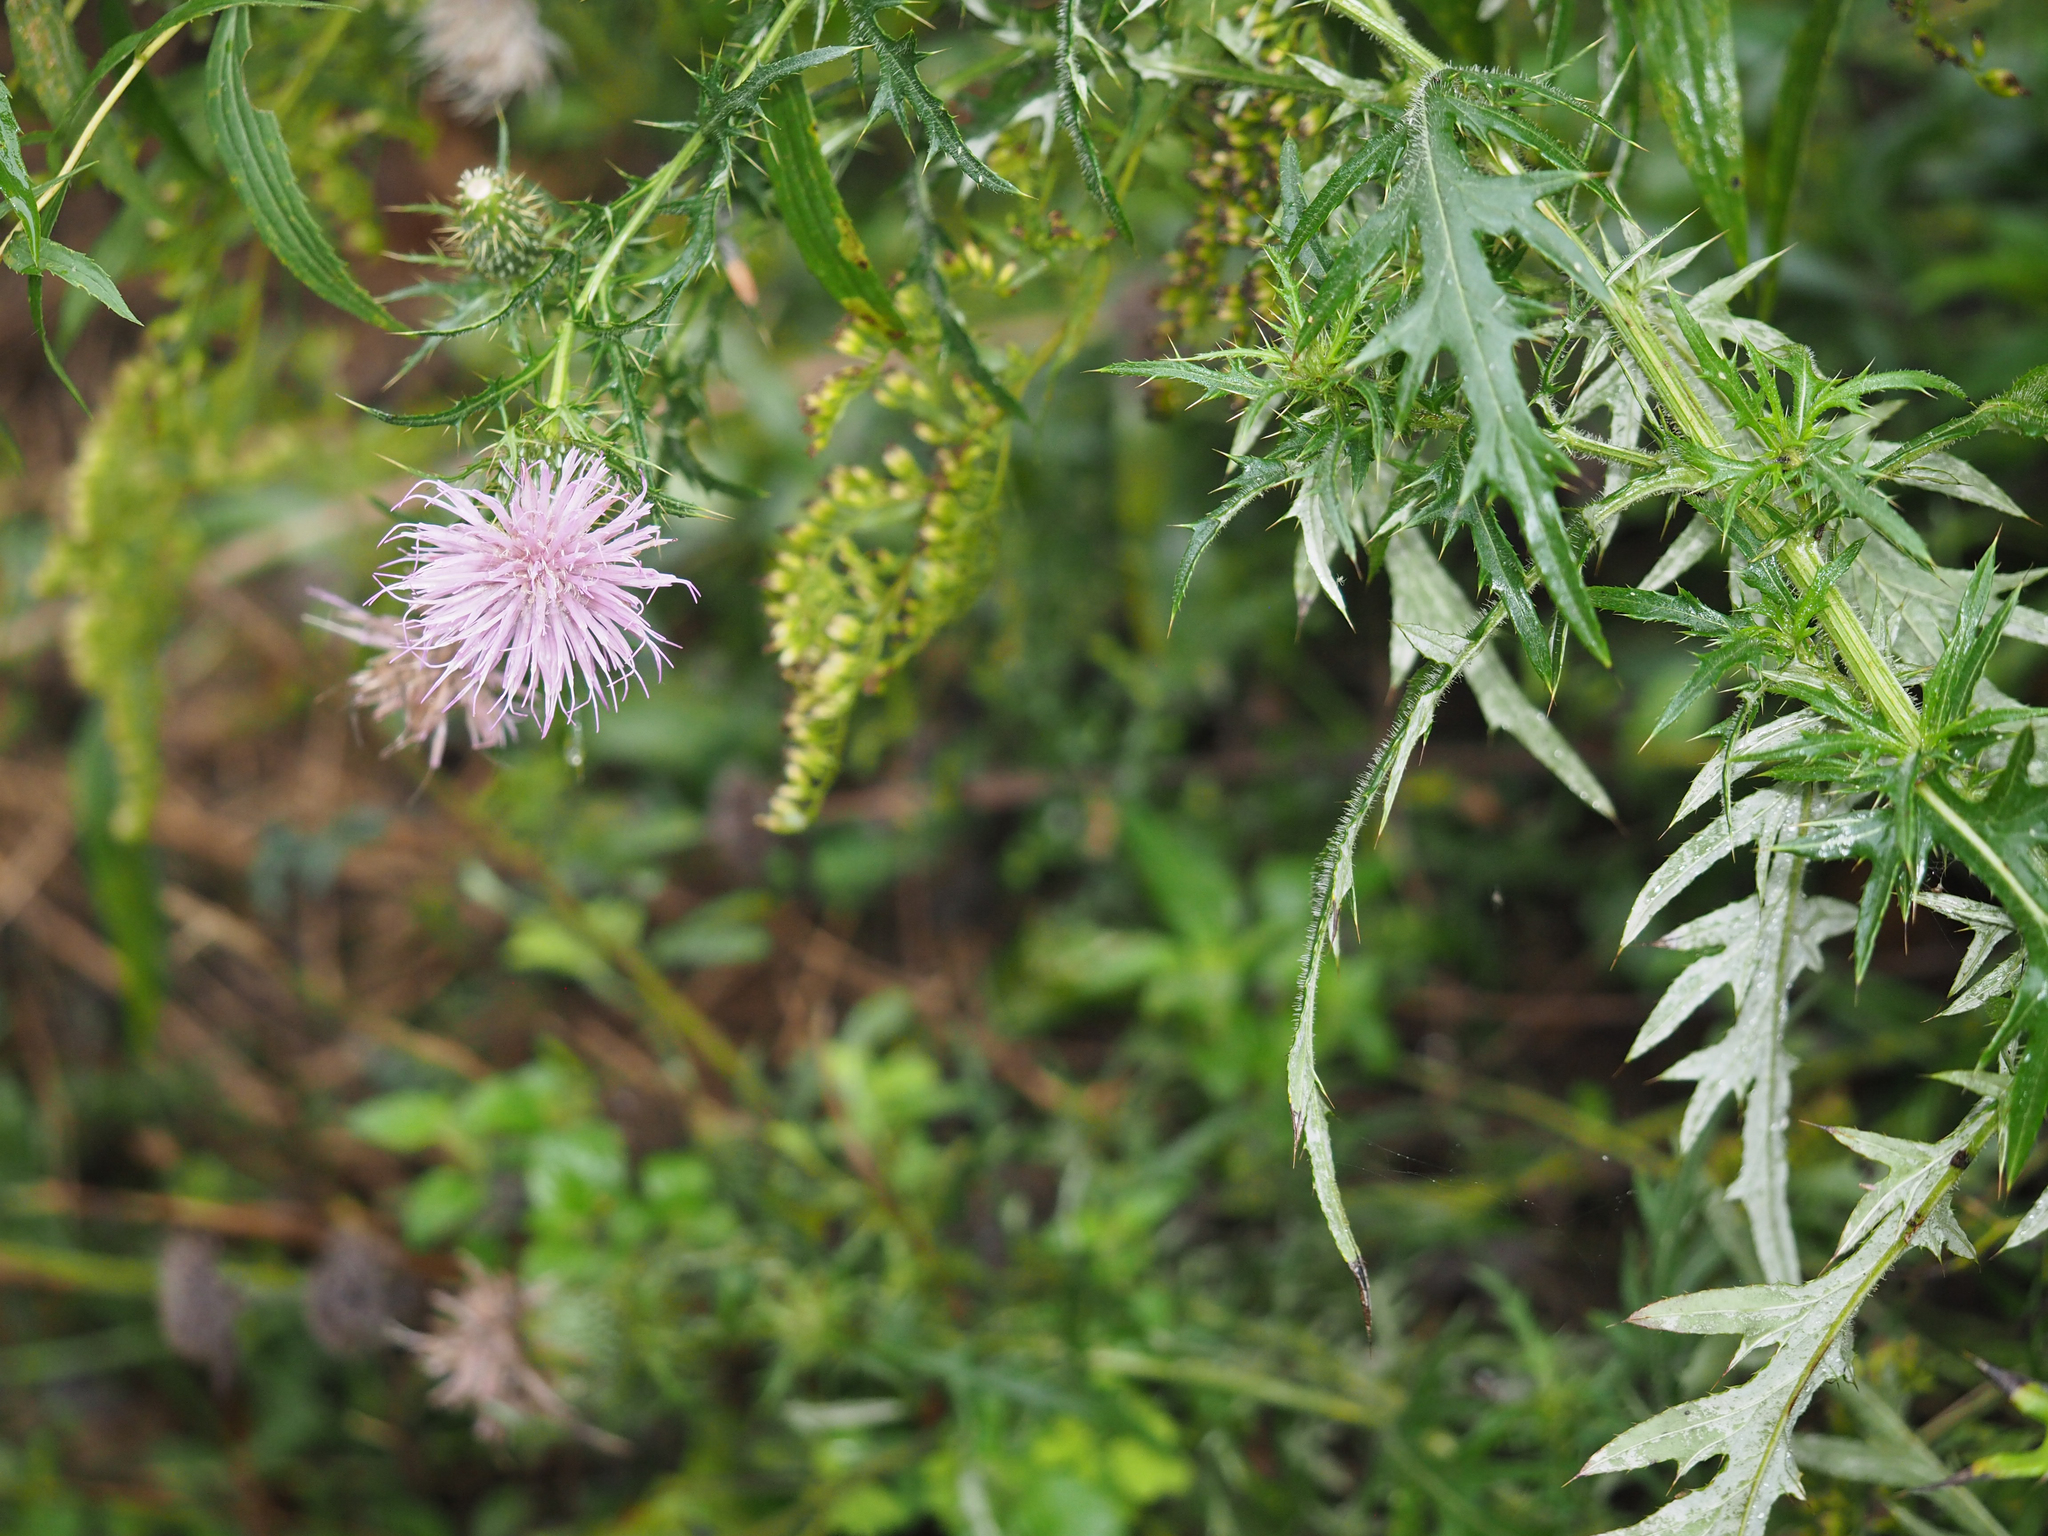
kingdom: Plantae
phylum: Tracheophyta
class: Magnoliopsida
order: Asterales
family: Asteraceae
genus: Cirsium
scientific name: Cirsium discolor
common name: Field thistle
